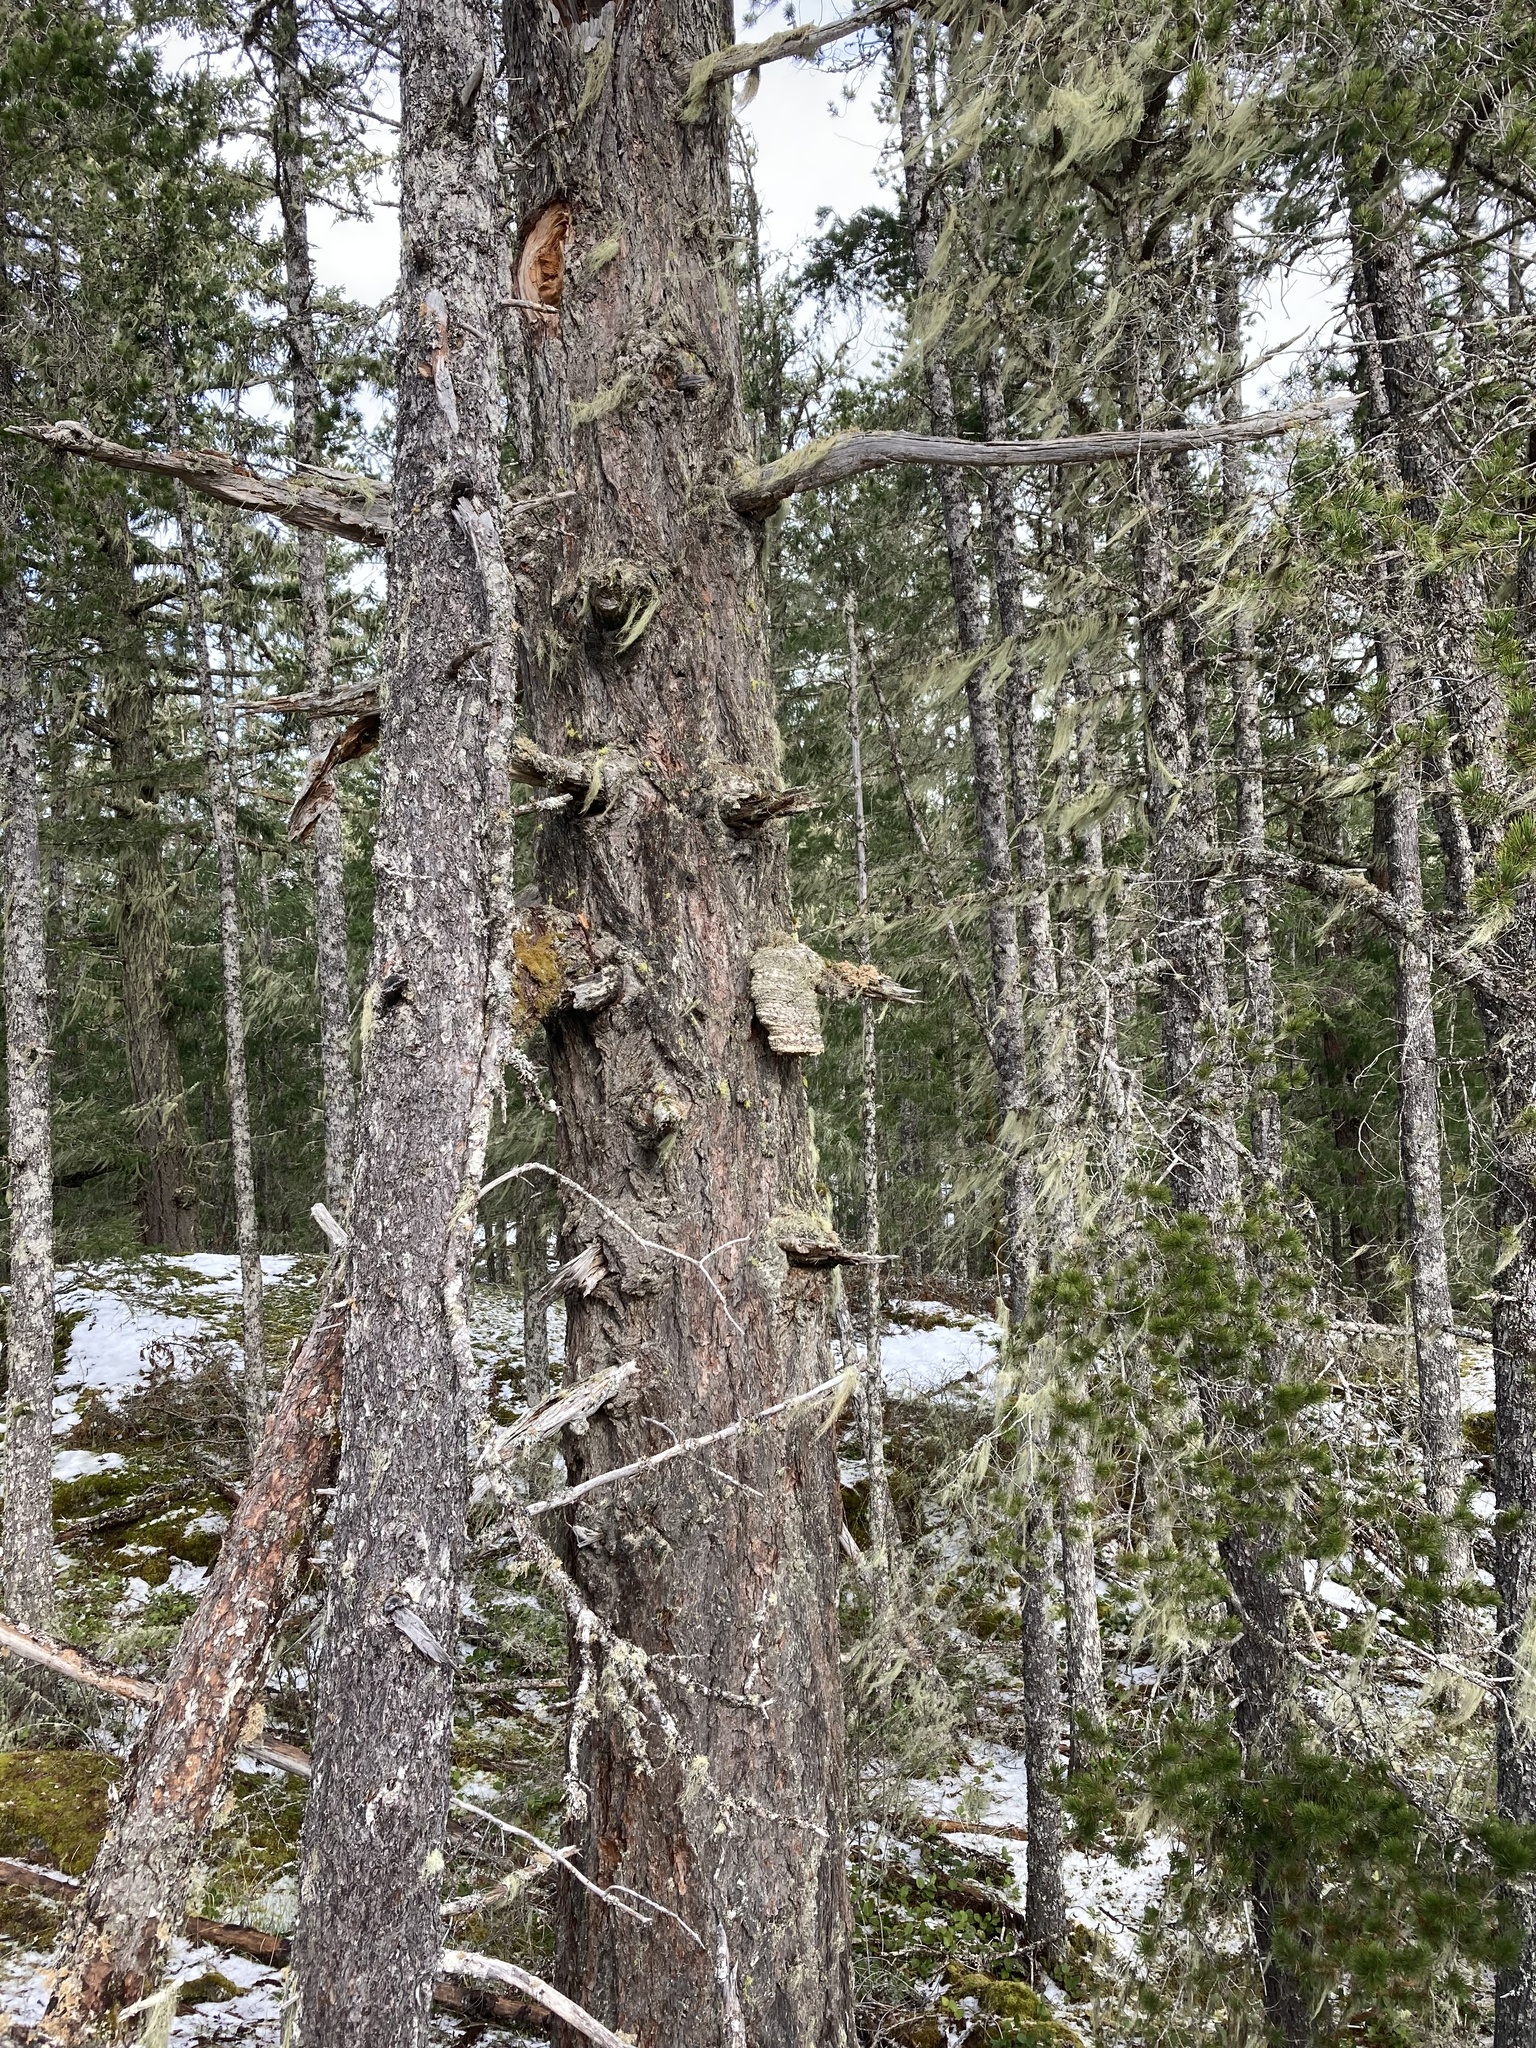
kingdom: Fungi
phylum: Basidiomycota
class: Agaricomycetes
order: Polyporales
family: Fomitopsidaceae
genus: Fomitopsis
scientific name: Fomitopsis officinalis
